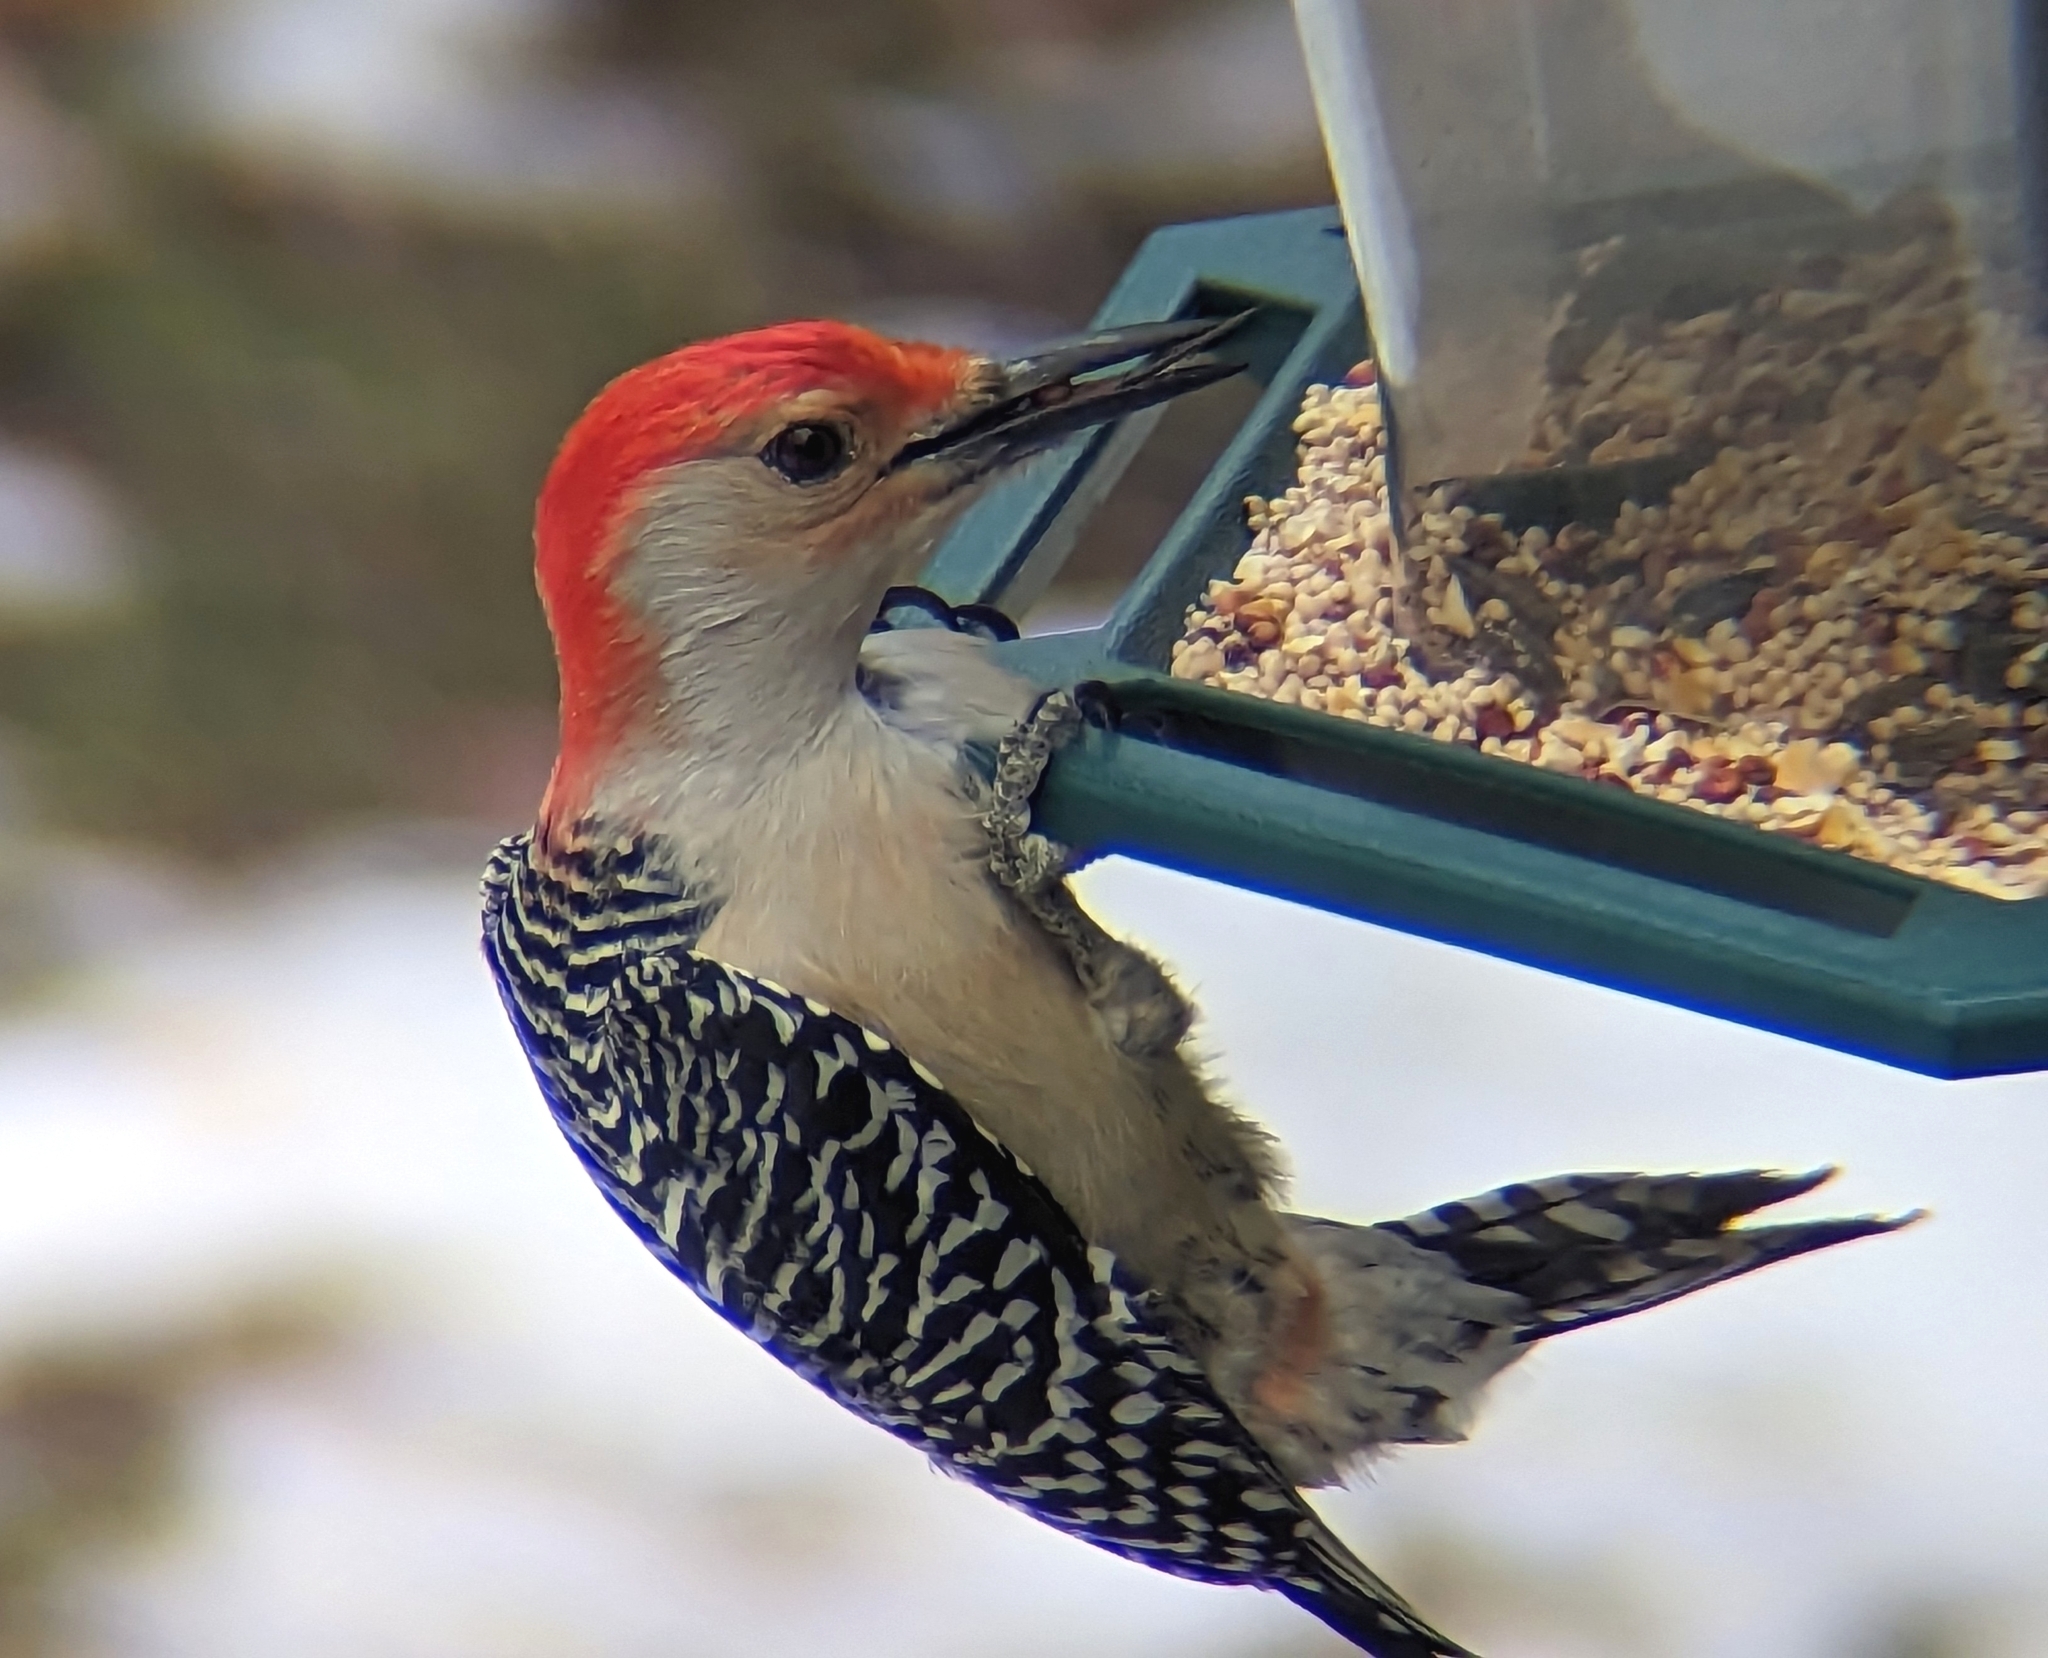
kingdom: Animalia
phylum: Chordata
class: Aves
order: Piciformes
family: Picidae
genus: Melanerpes
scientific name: Melanerpes carolinus
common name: Red-bellied woodpecker
